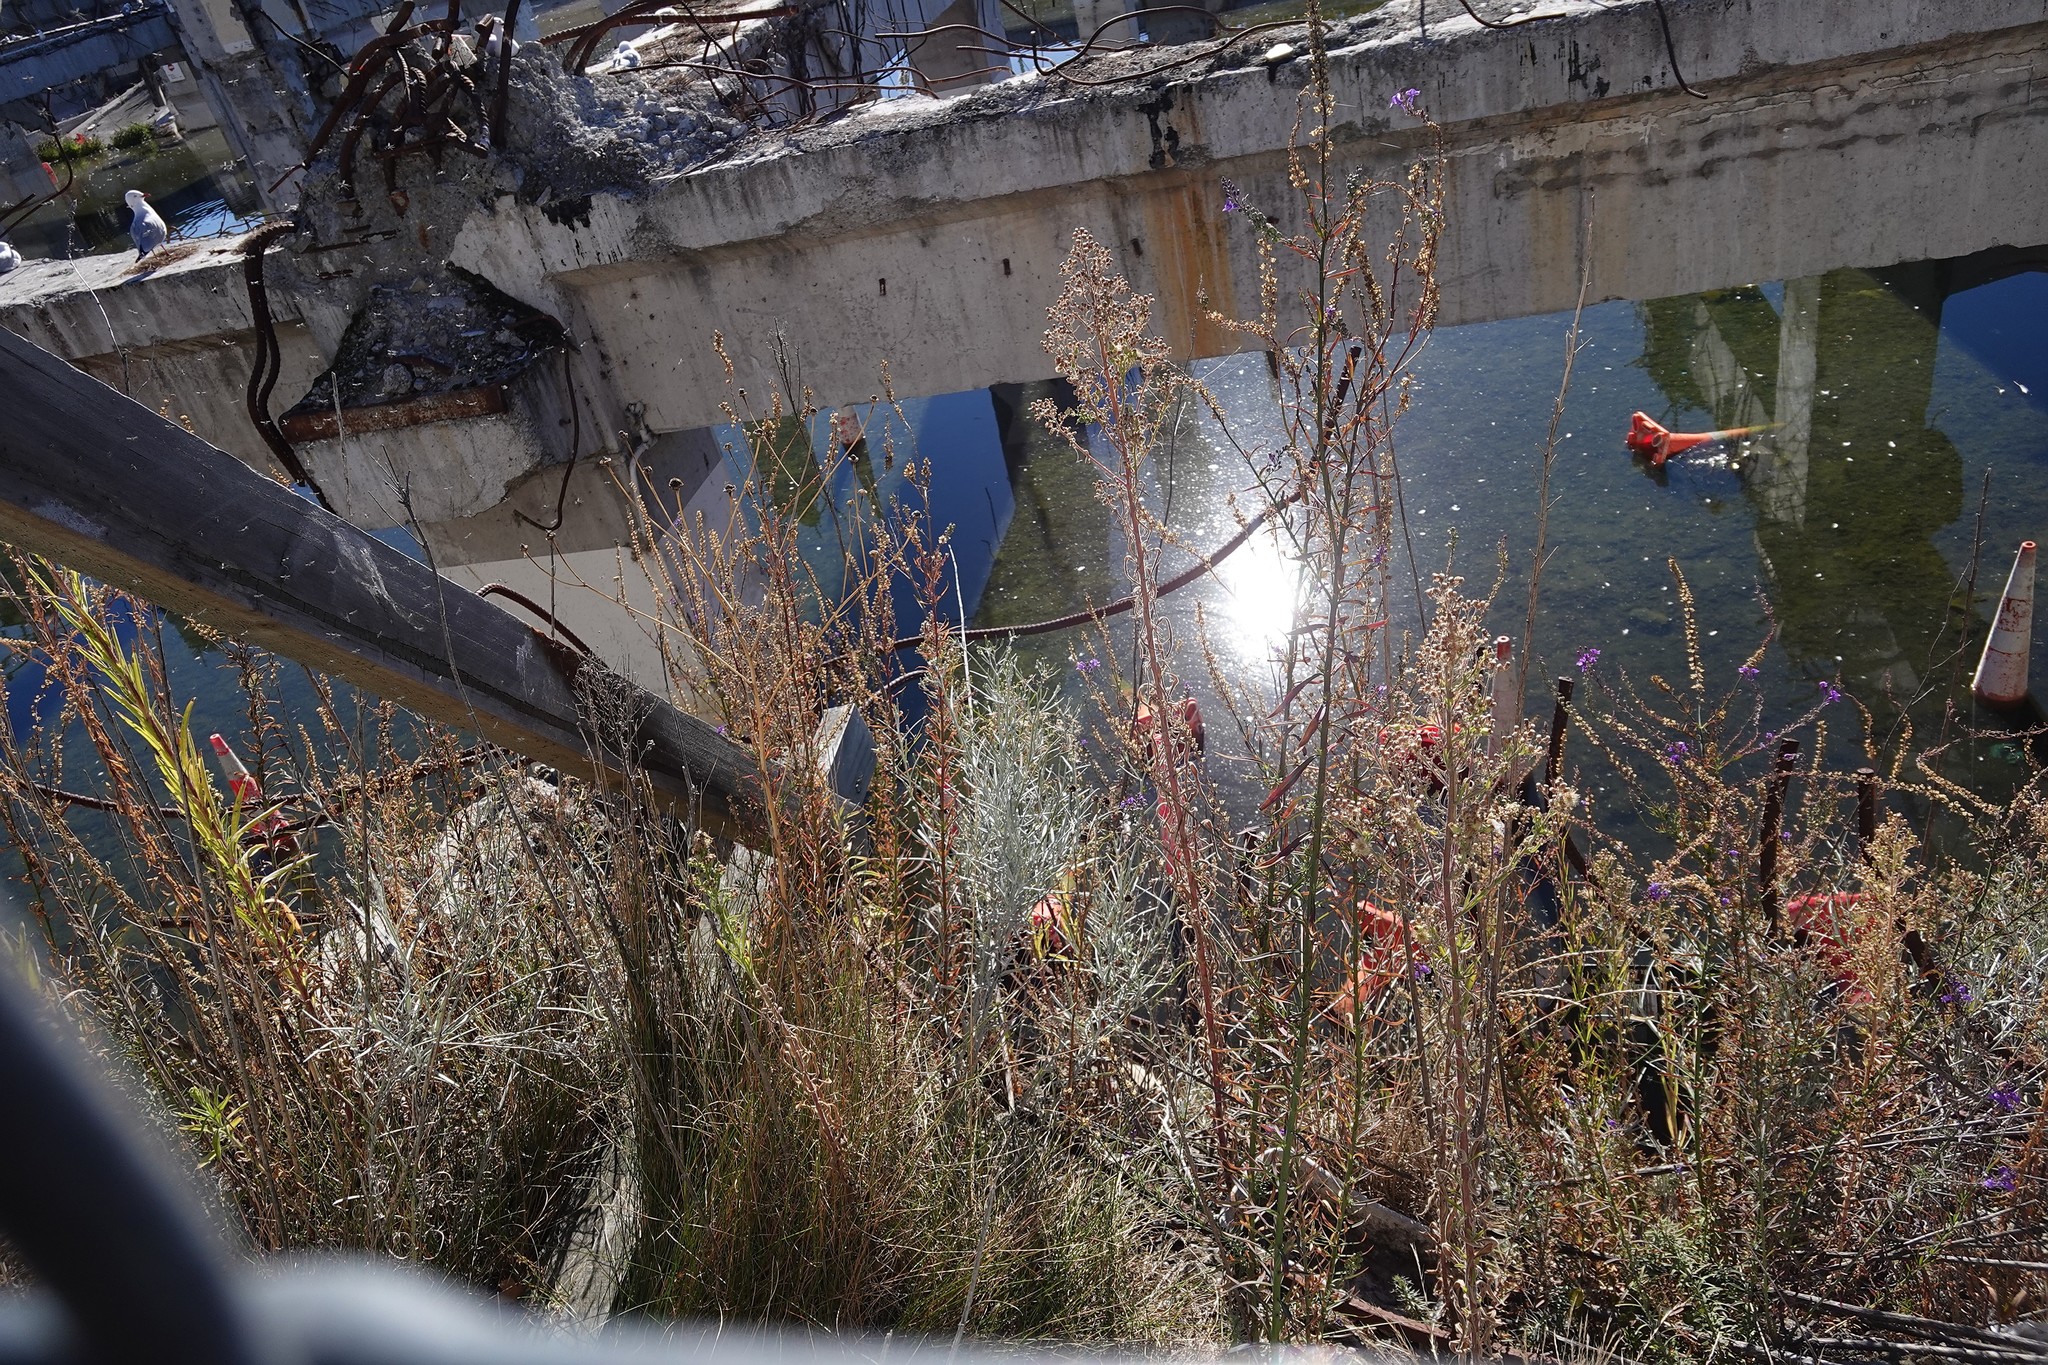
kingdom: Plantae
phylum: Tracheophyta
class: Magnoliopsida
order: Lamiales
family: Plantaginaceae
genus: Linaria
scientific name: Linaria purpurea
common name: Purple toadflax
